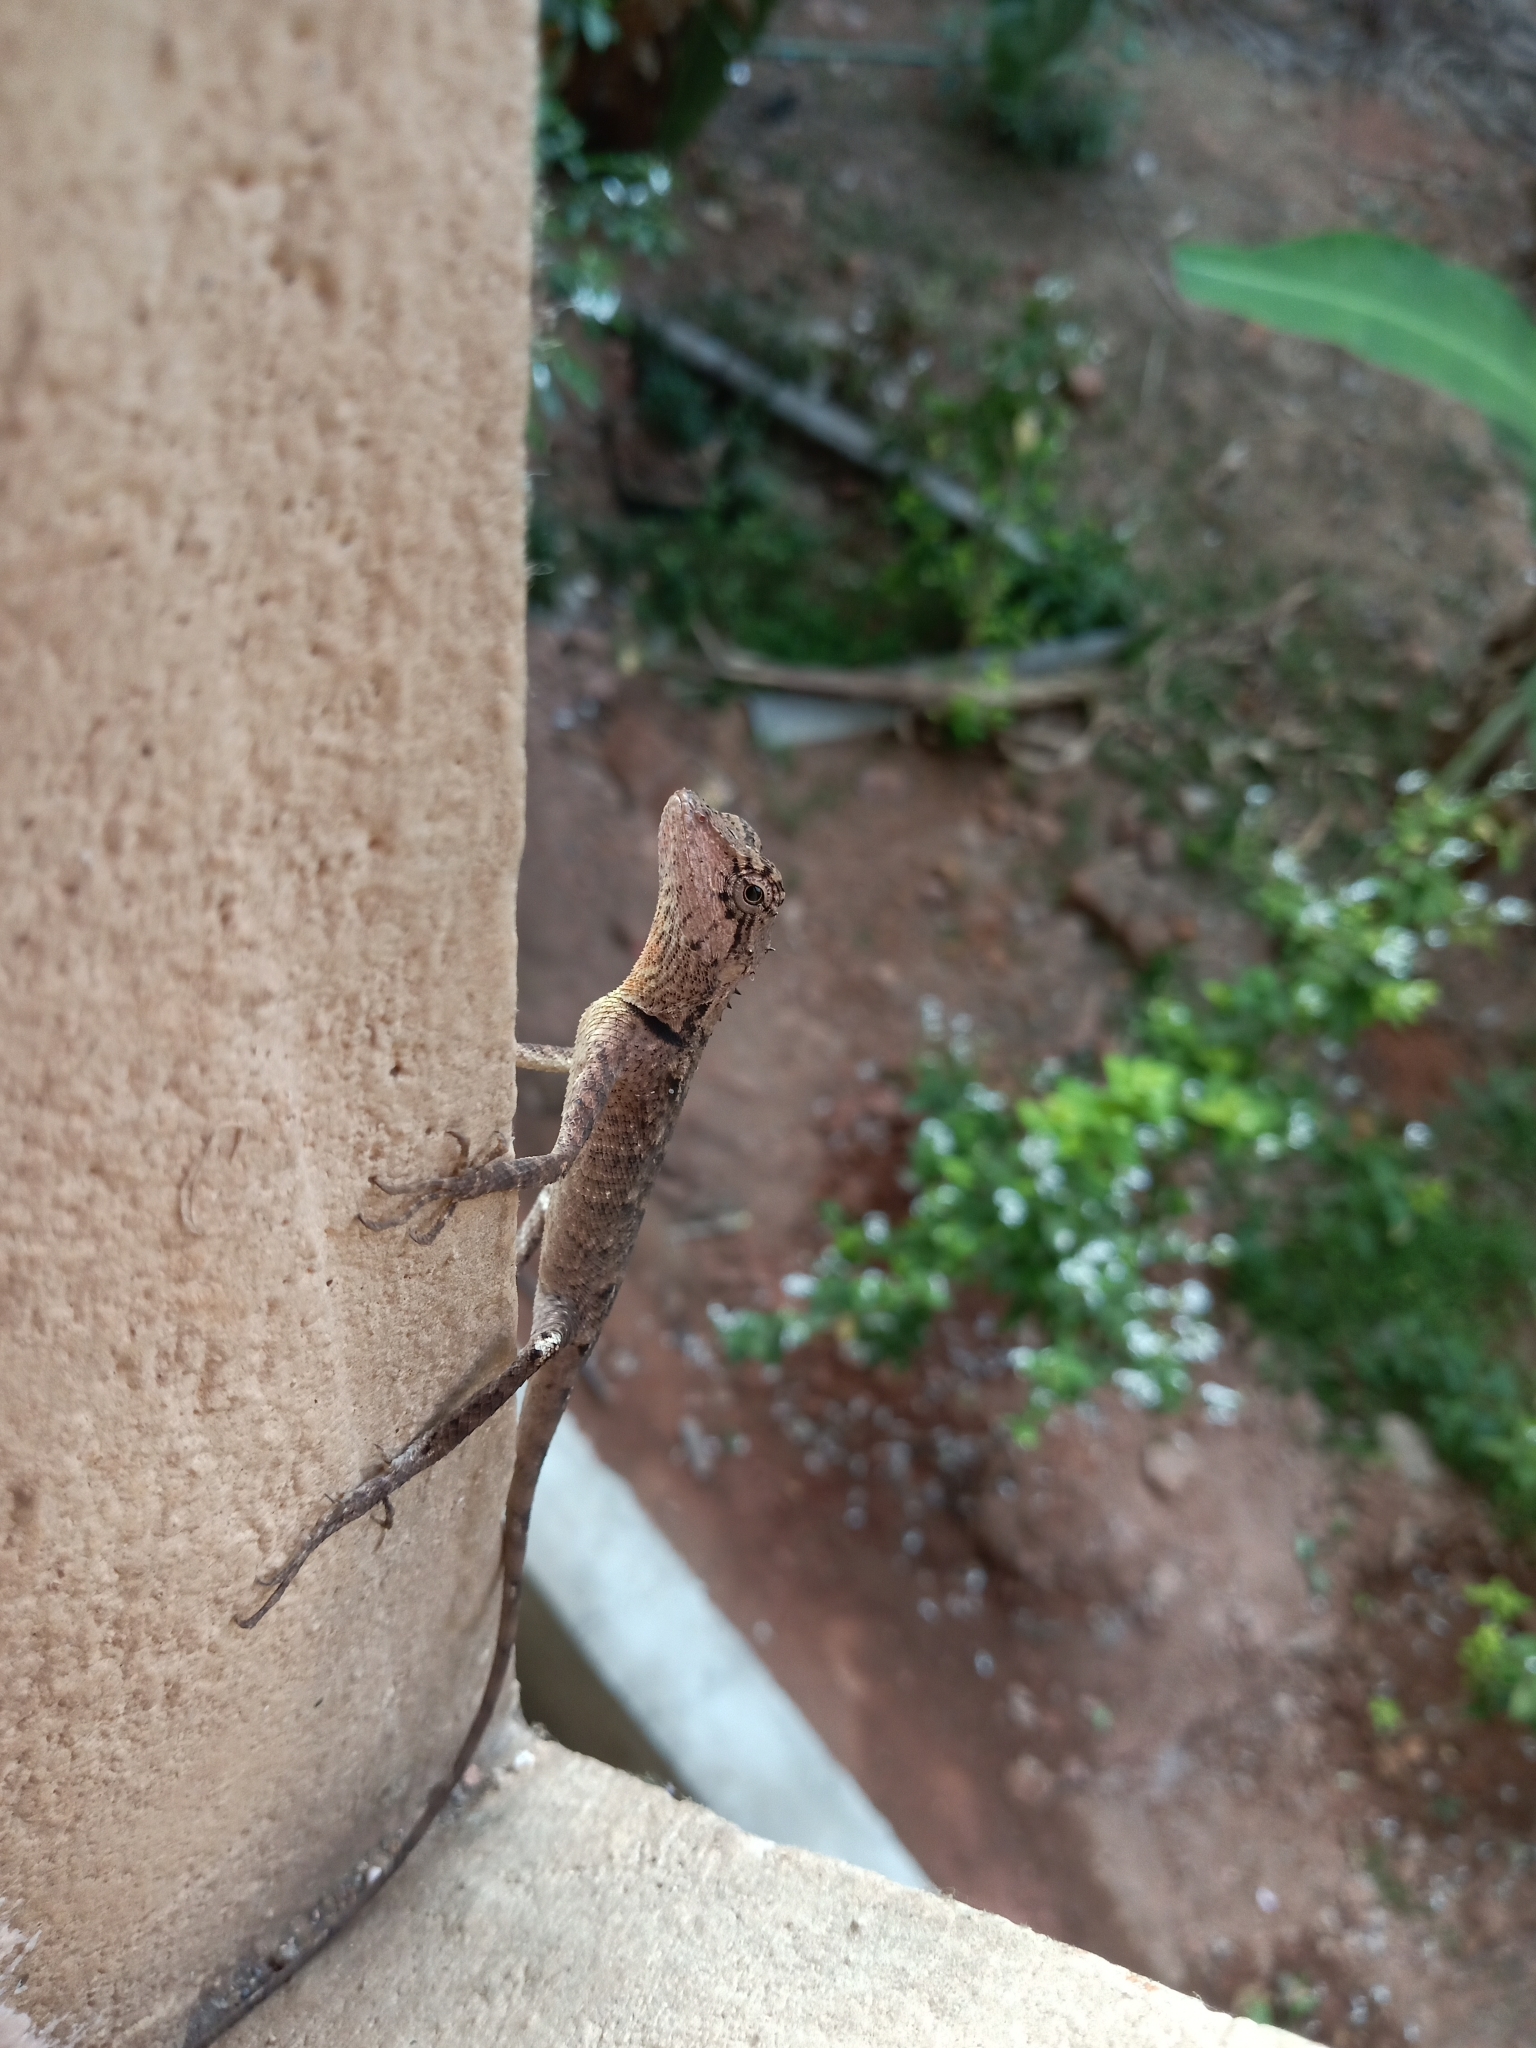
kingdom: Animalia
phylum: Chordata
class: Squamata
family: Agamidae
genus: Monilesaurus
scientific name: Monilesaurus rouxii
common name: Roux's forest lizard
